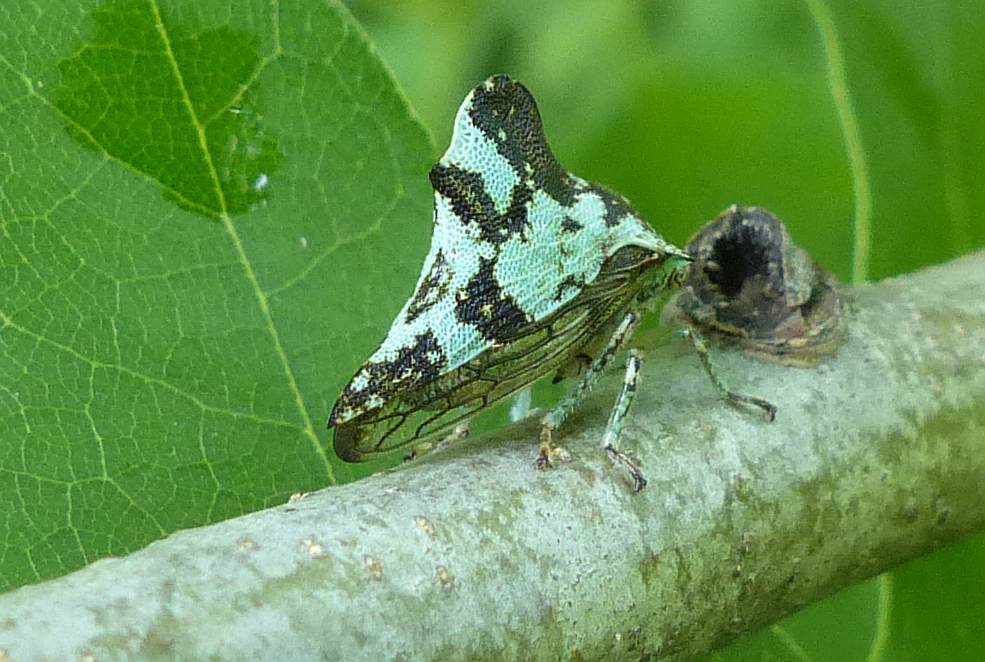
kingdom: Animalia
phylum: Arthropoda
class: Insecta
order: Hemiptera
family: Membracidae
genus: Telamona
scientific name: Telamona concava
